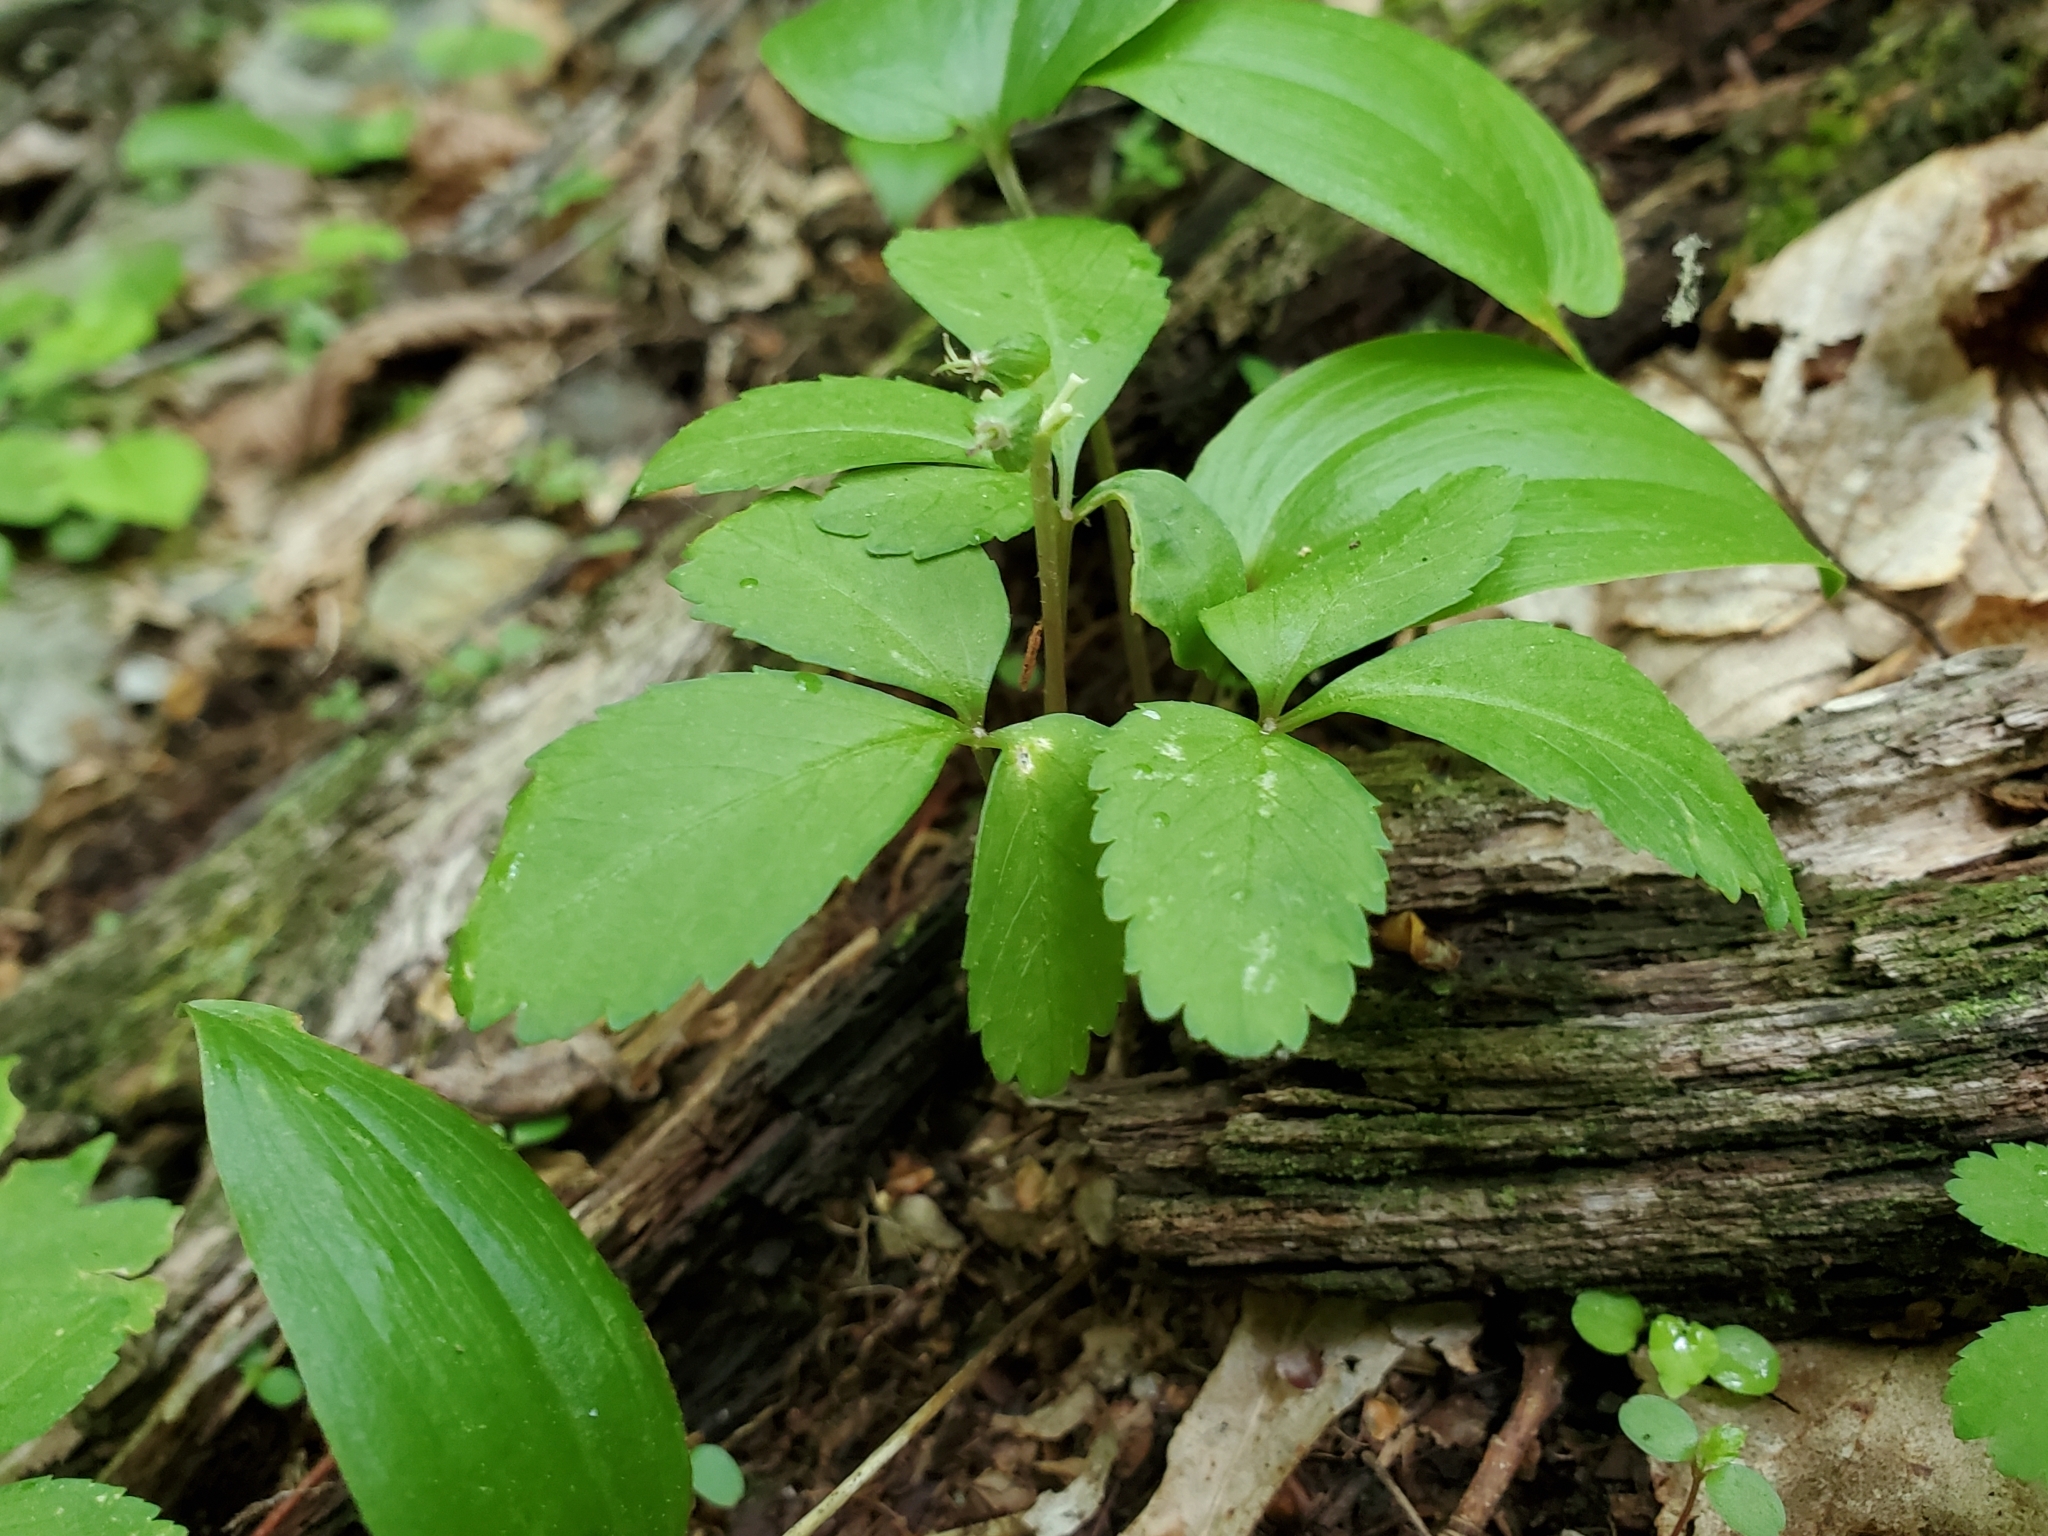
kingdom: Plantae
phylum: Tracheophyta
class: Magnoliopsida
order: Apiales
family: Araliaceae
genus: Panax
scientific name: Panax trifolius
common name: Dwarf ginseng
